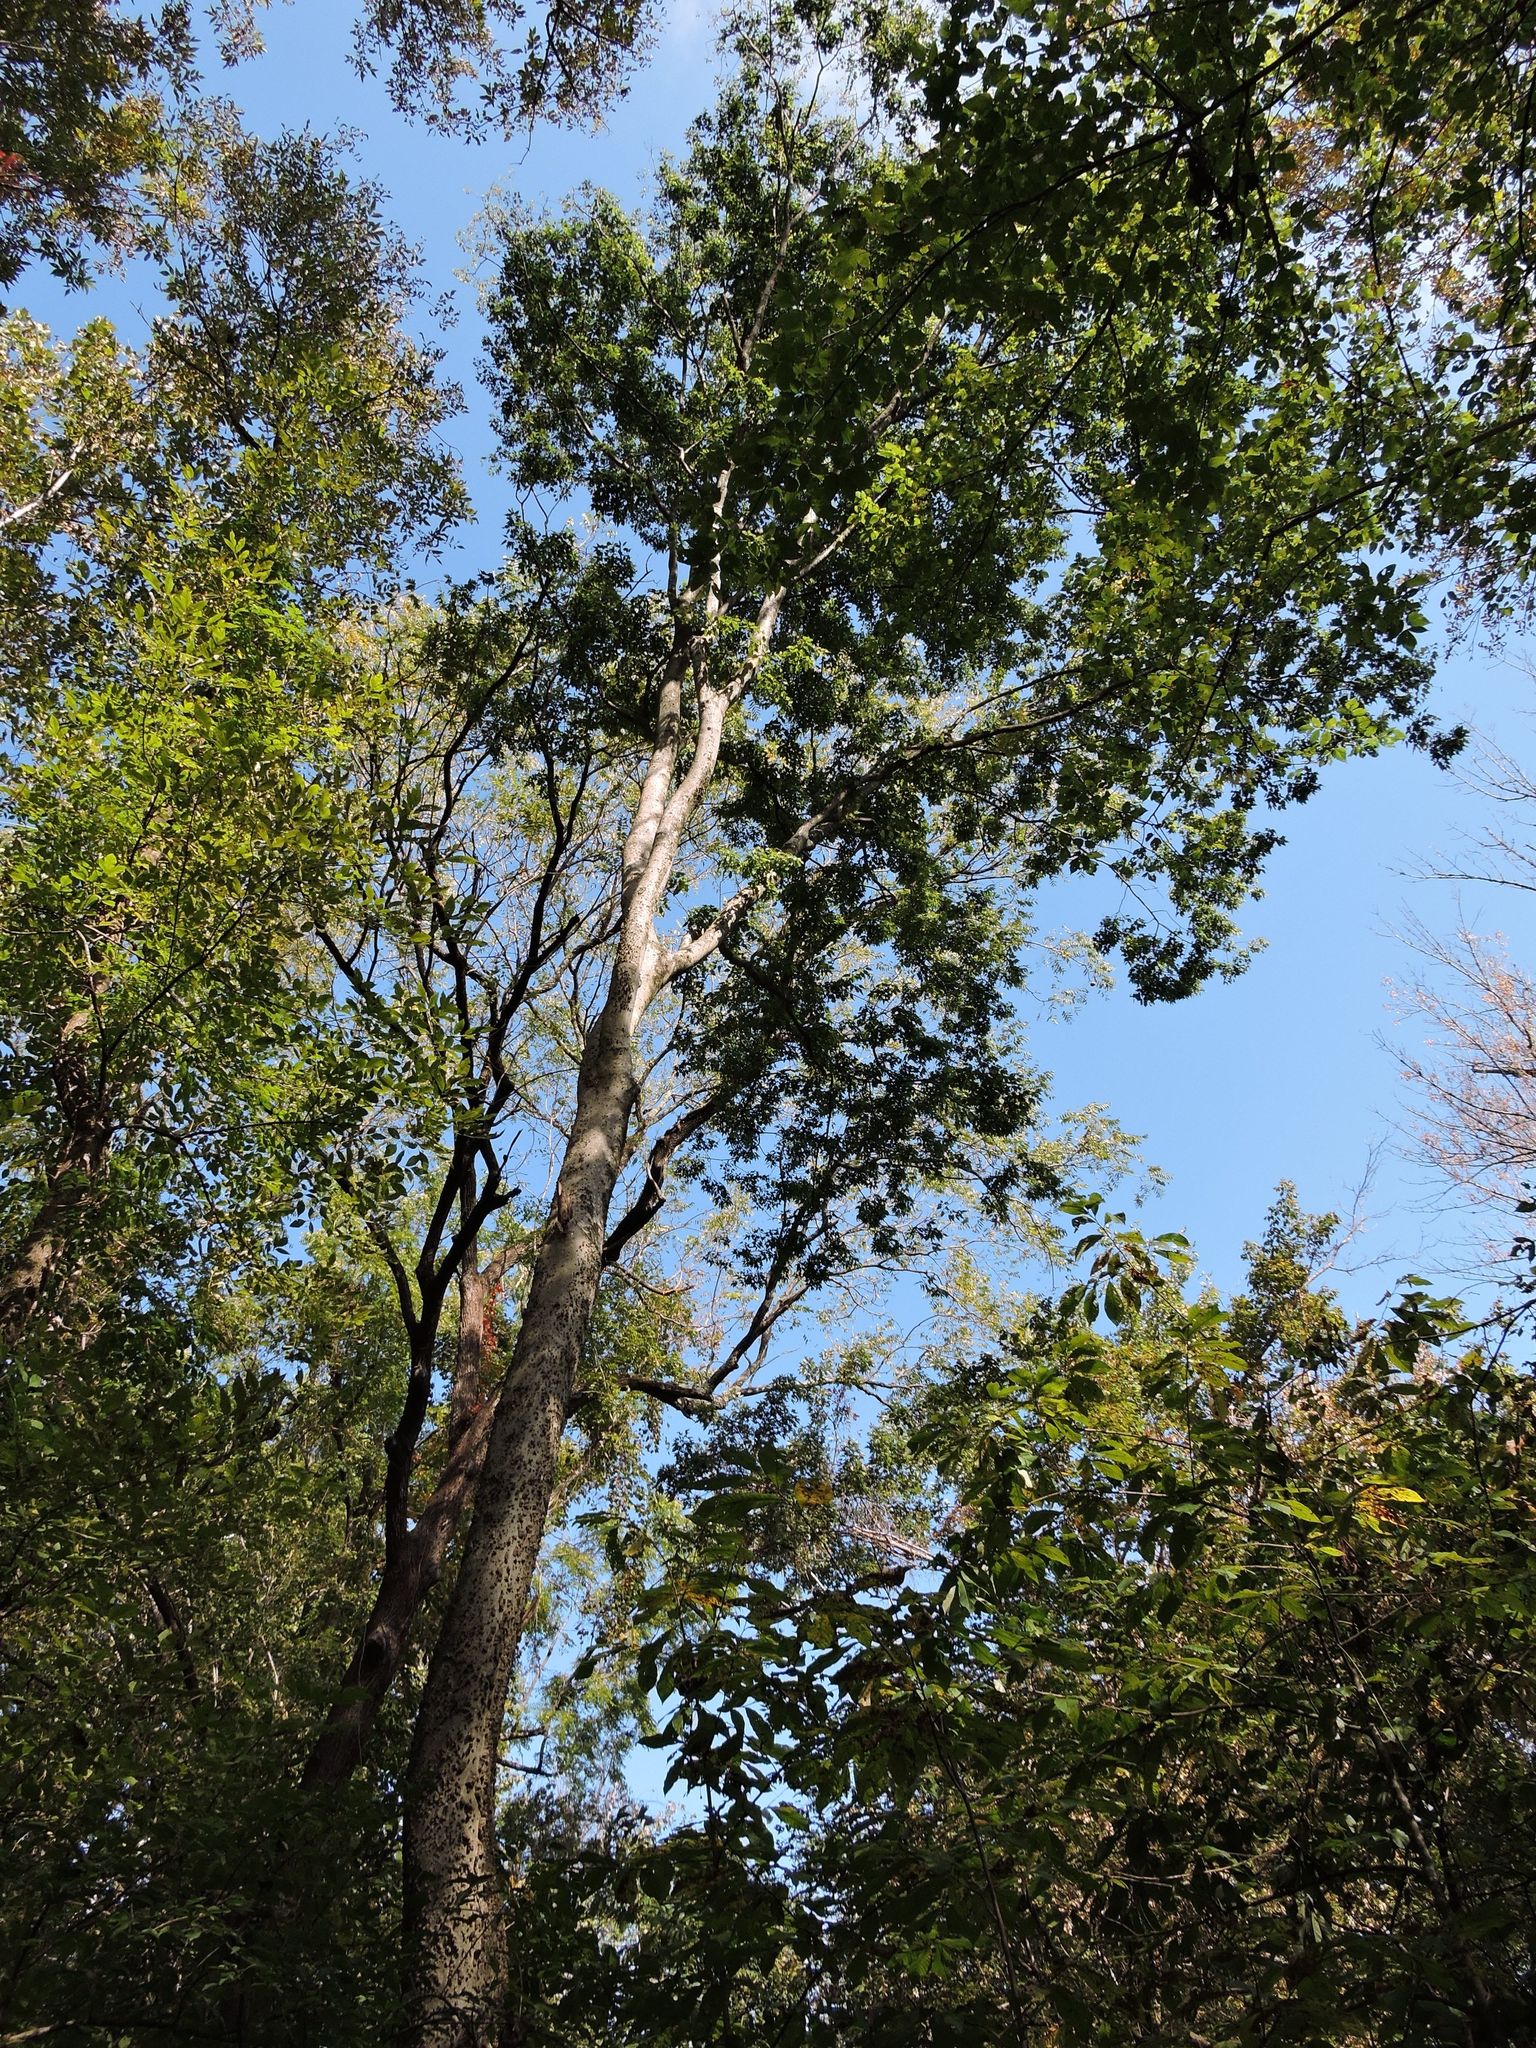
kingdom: Plantae
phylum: Tracheophyta
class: Magnoliopsida
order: Rosales
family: Cannabaceae
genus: Celtis
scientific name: Celtis occidentalis
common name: Common hackberry
